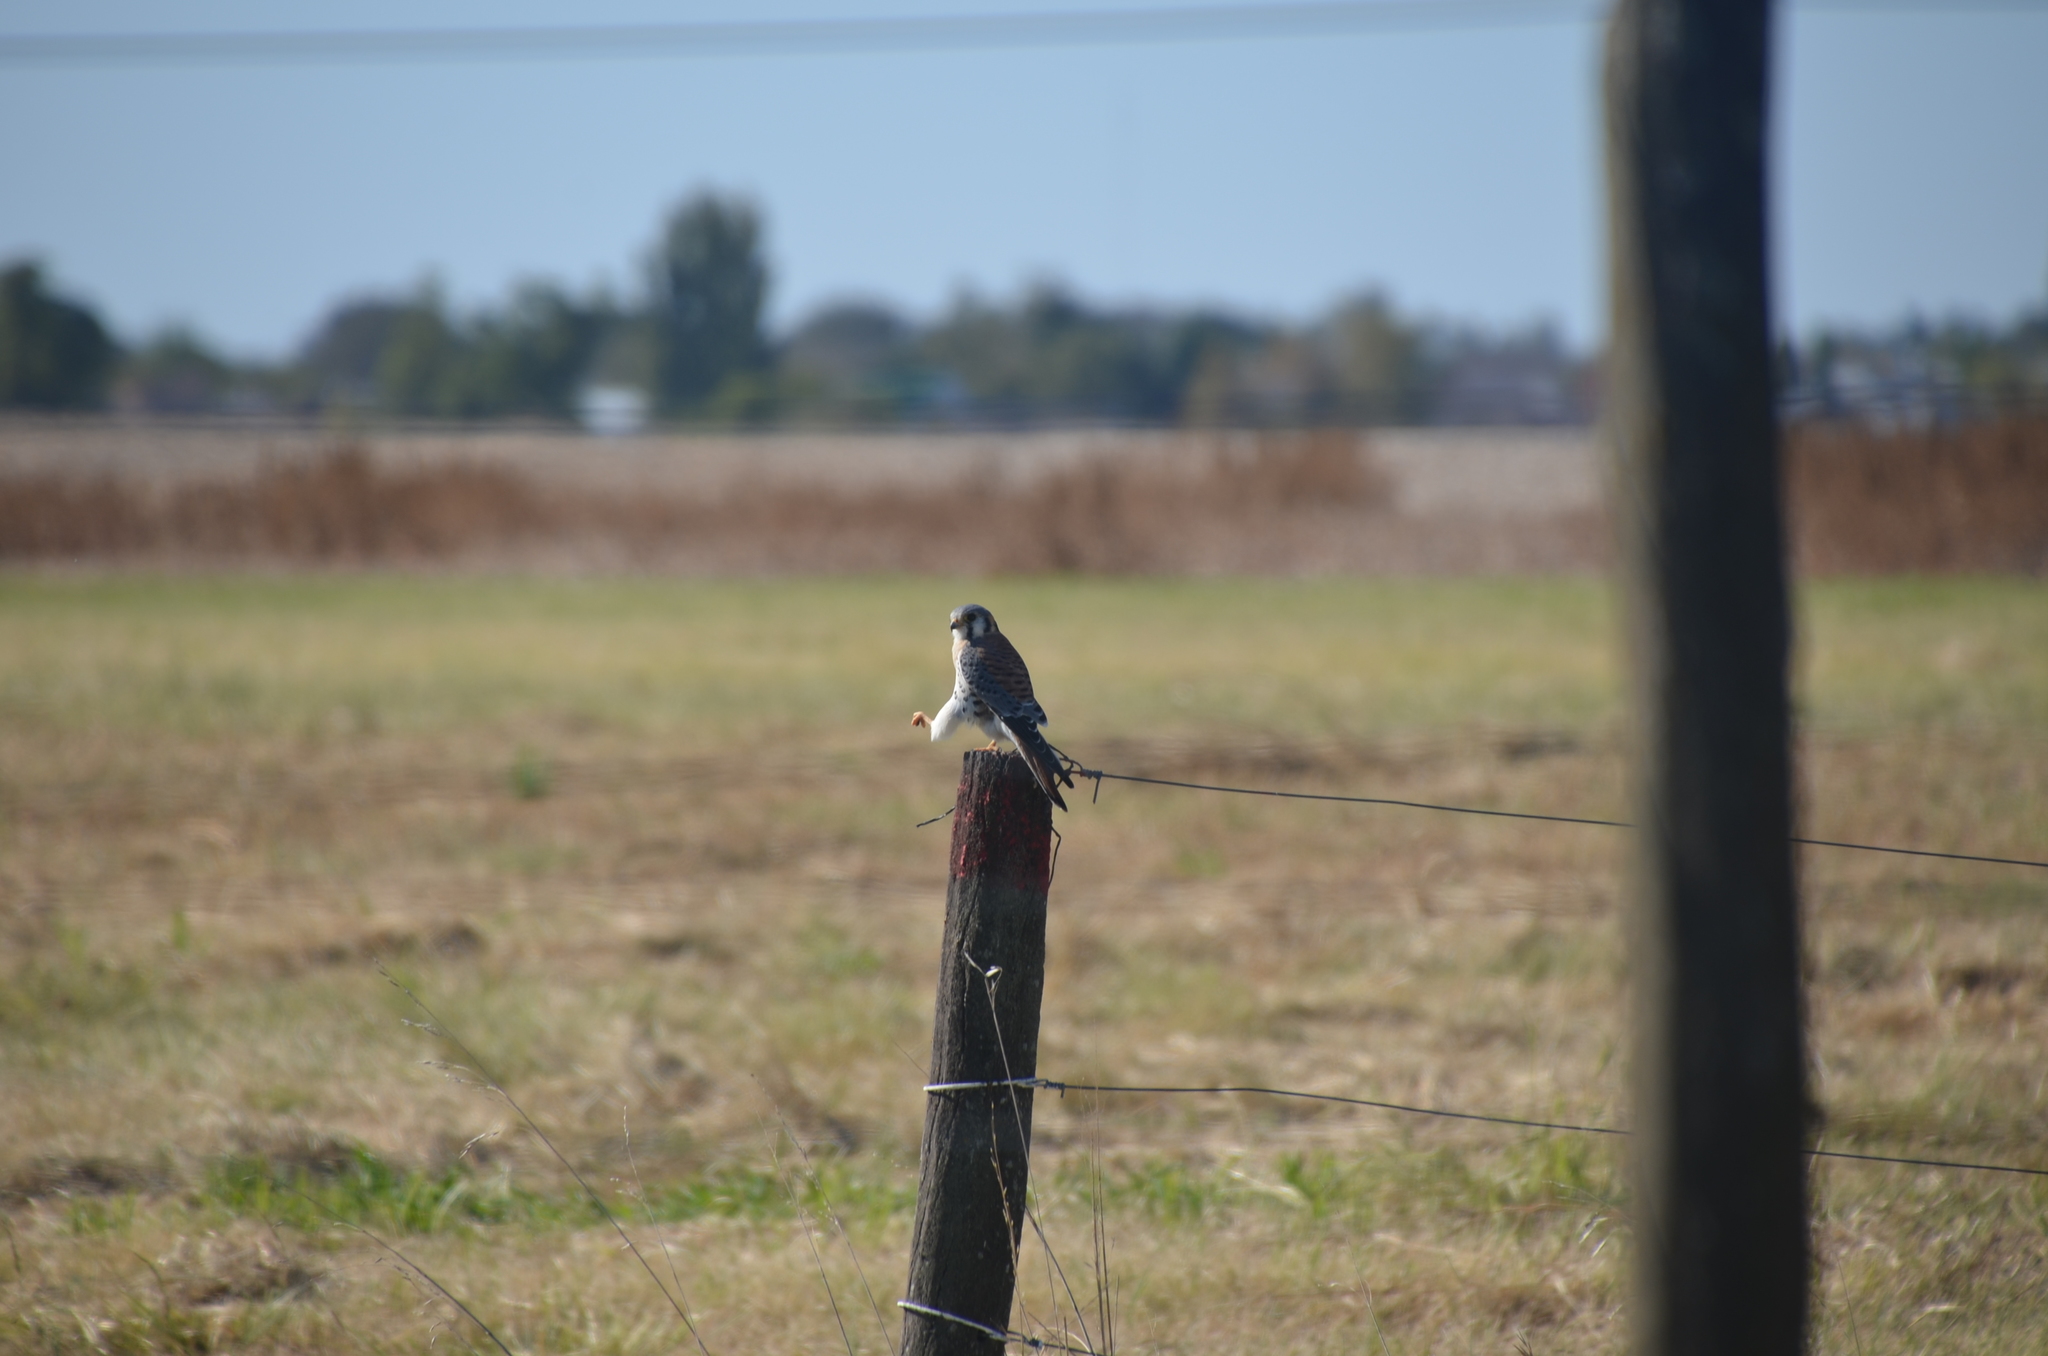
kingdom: Animalia
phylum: Chordata
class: Aves
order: Falconiformes
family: Falconidae
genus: Falco
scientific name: Falco sparverius
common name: American kestrel
